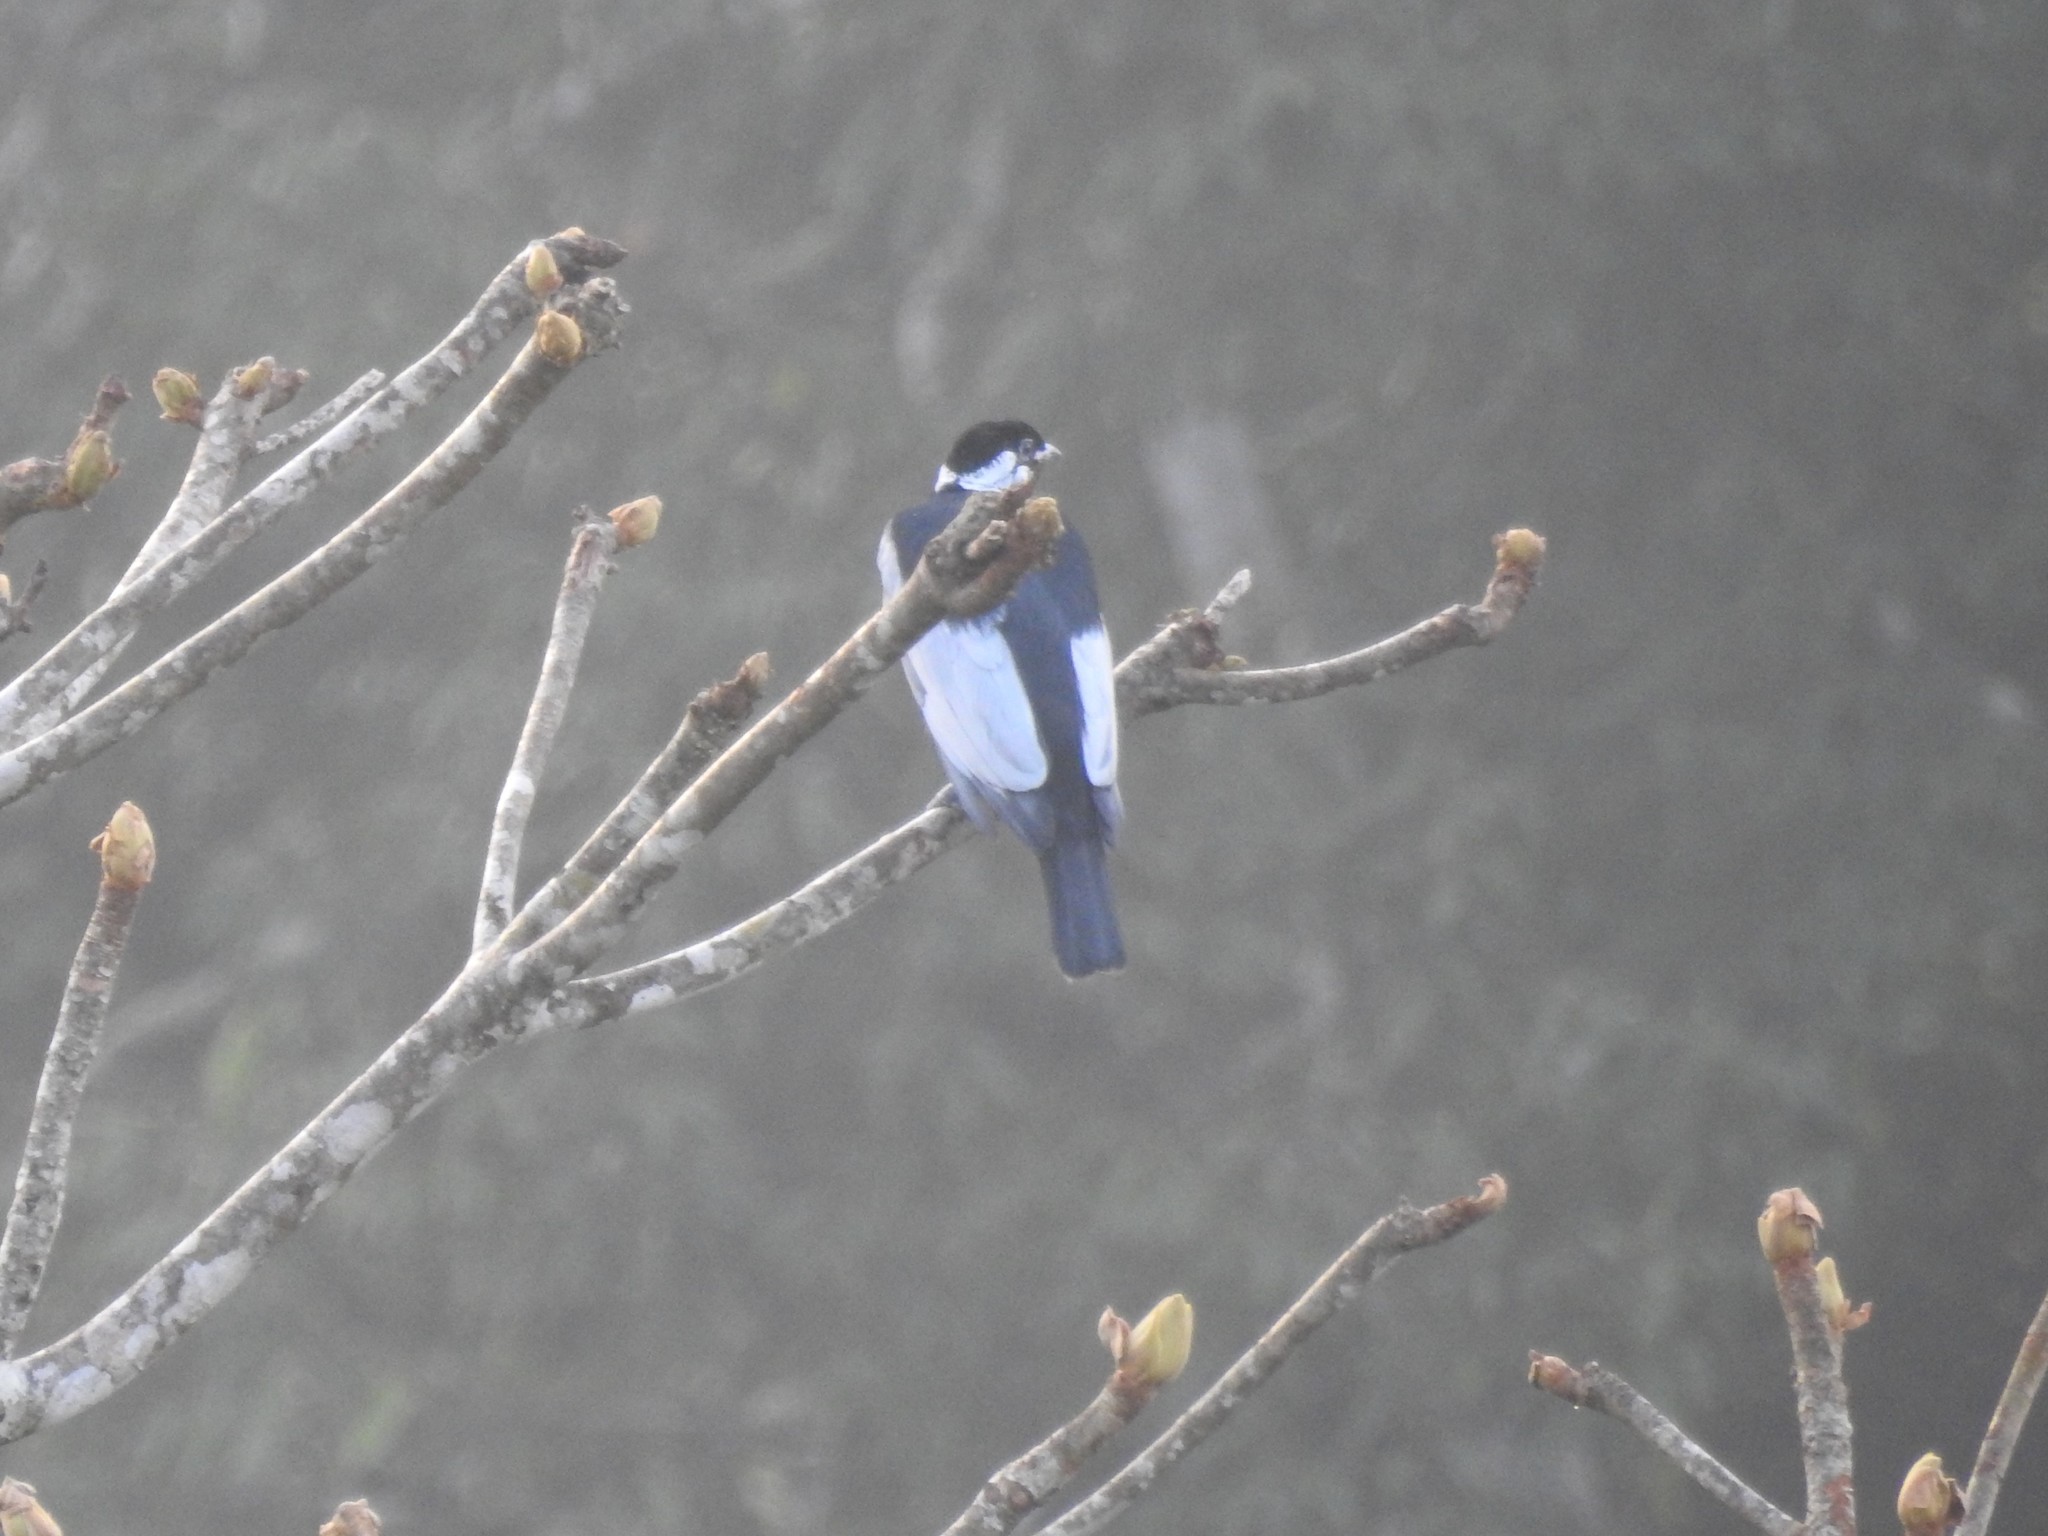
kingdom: Animalia
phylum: Chordata
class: Aves
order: Passeriformes
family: Cotingidae
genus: Gymnoderus
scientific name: Gymnoderus foetidus
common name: Bare-necked fruitcrow
